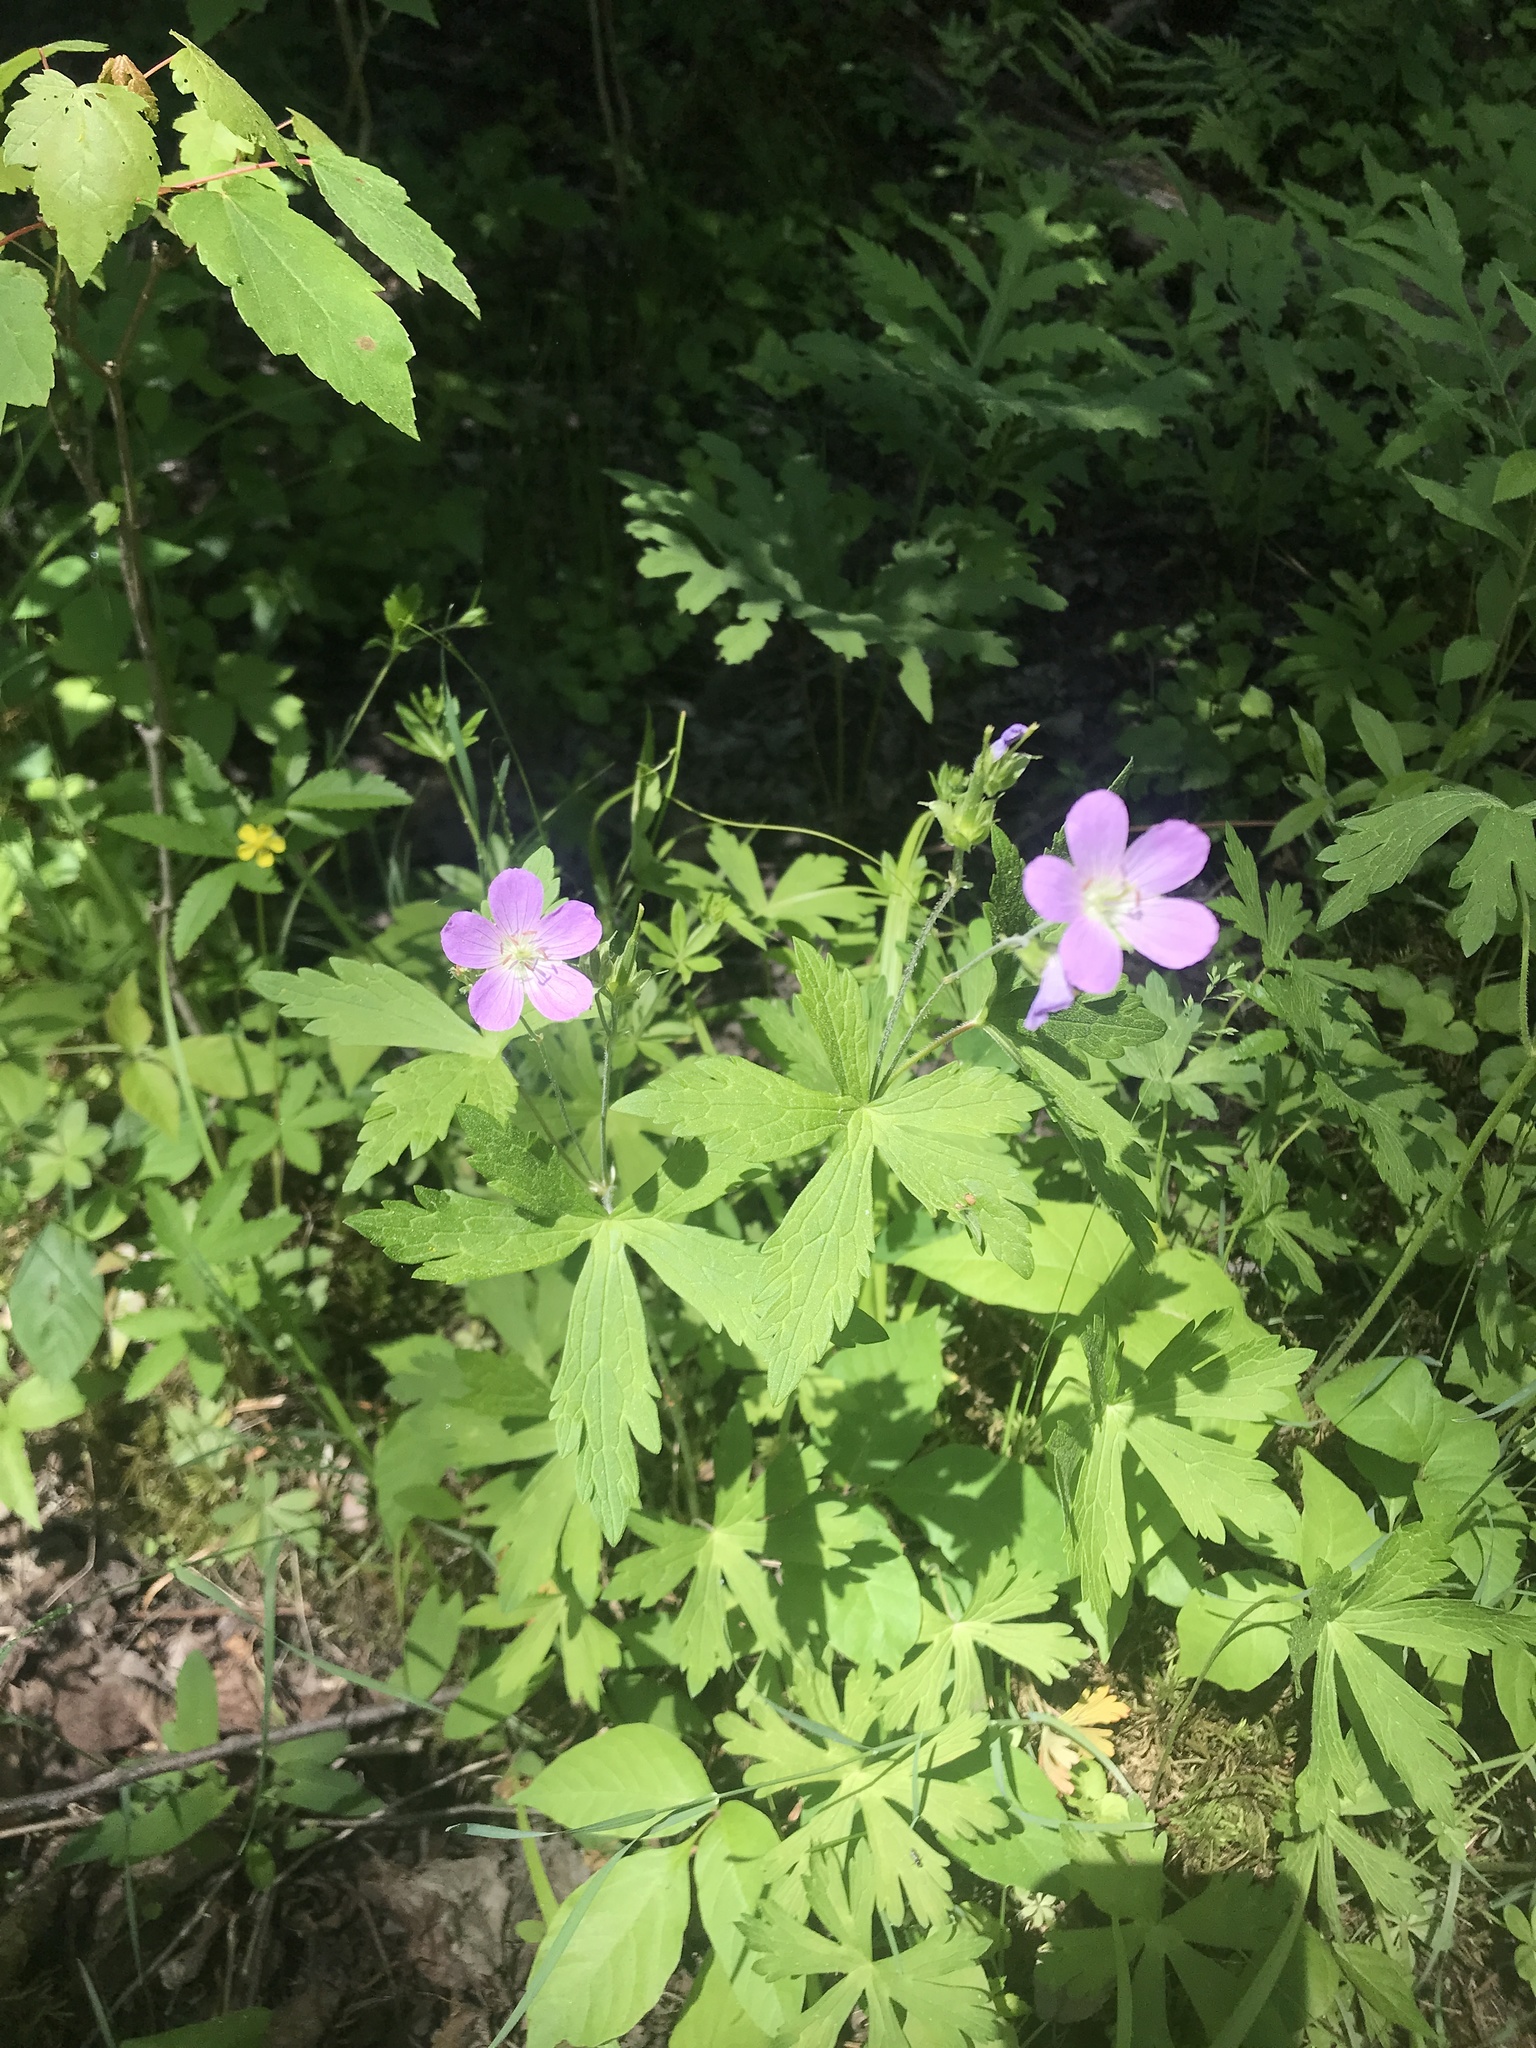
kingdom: Plantae
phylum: Tracheophyta
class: Magnoliopsida
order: Geraniales
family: Geraniaceae
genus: Geranium
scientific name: Geranium maculatum
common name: Spotted geranium
